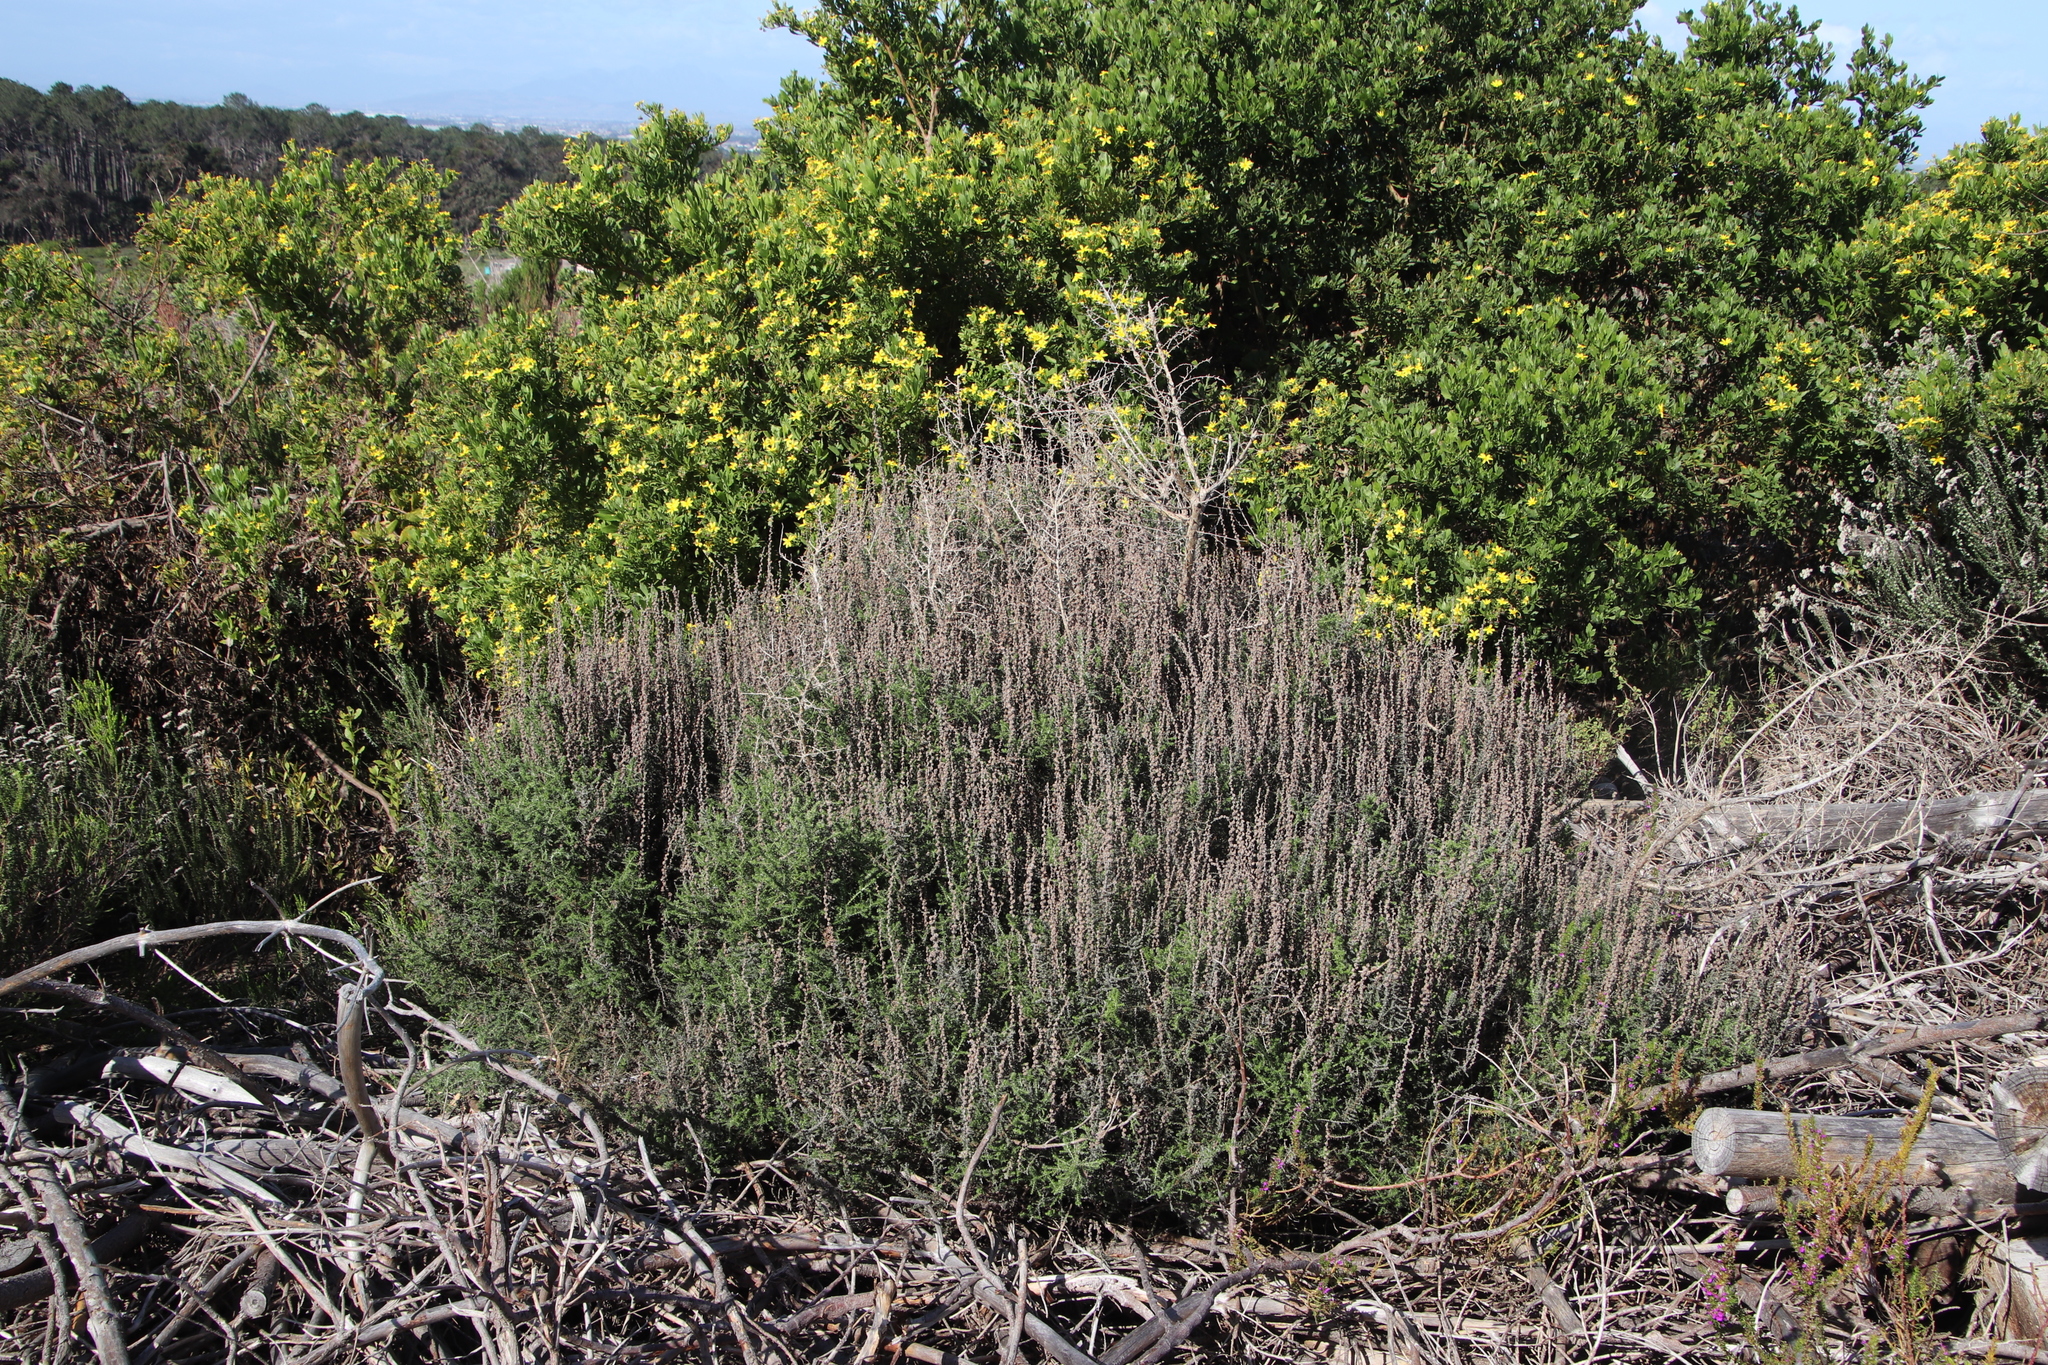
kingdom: Plantae
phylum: Tracheophyta
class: Magnoliopsida
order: Asterales
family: Asteraceae
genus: Seriphium
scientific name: Seriphium cinereum
